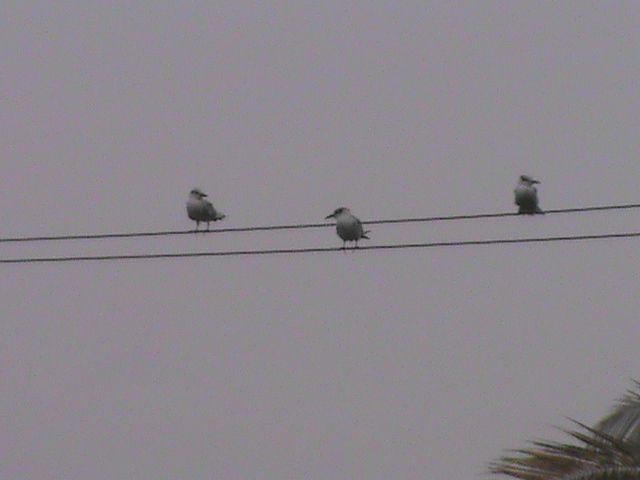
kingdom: Animalia
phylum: Chordata
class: Aves
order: Charadriiformes
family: Laridae
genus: Chlidonias
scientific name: Chlidonias hybrida
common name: Whiskered tern
